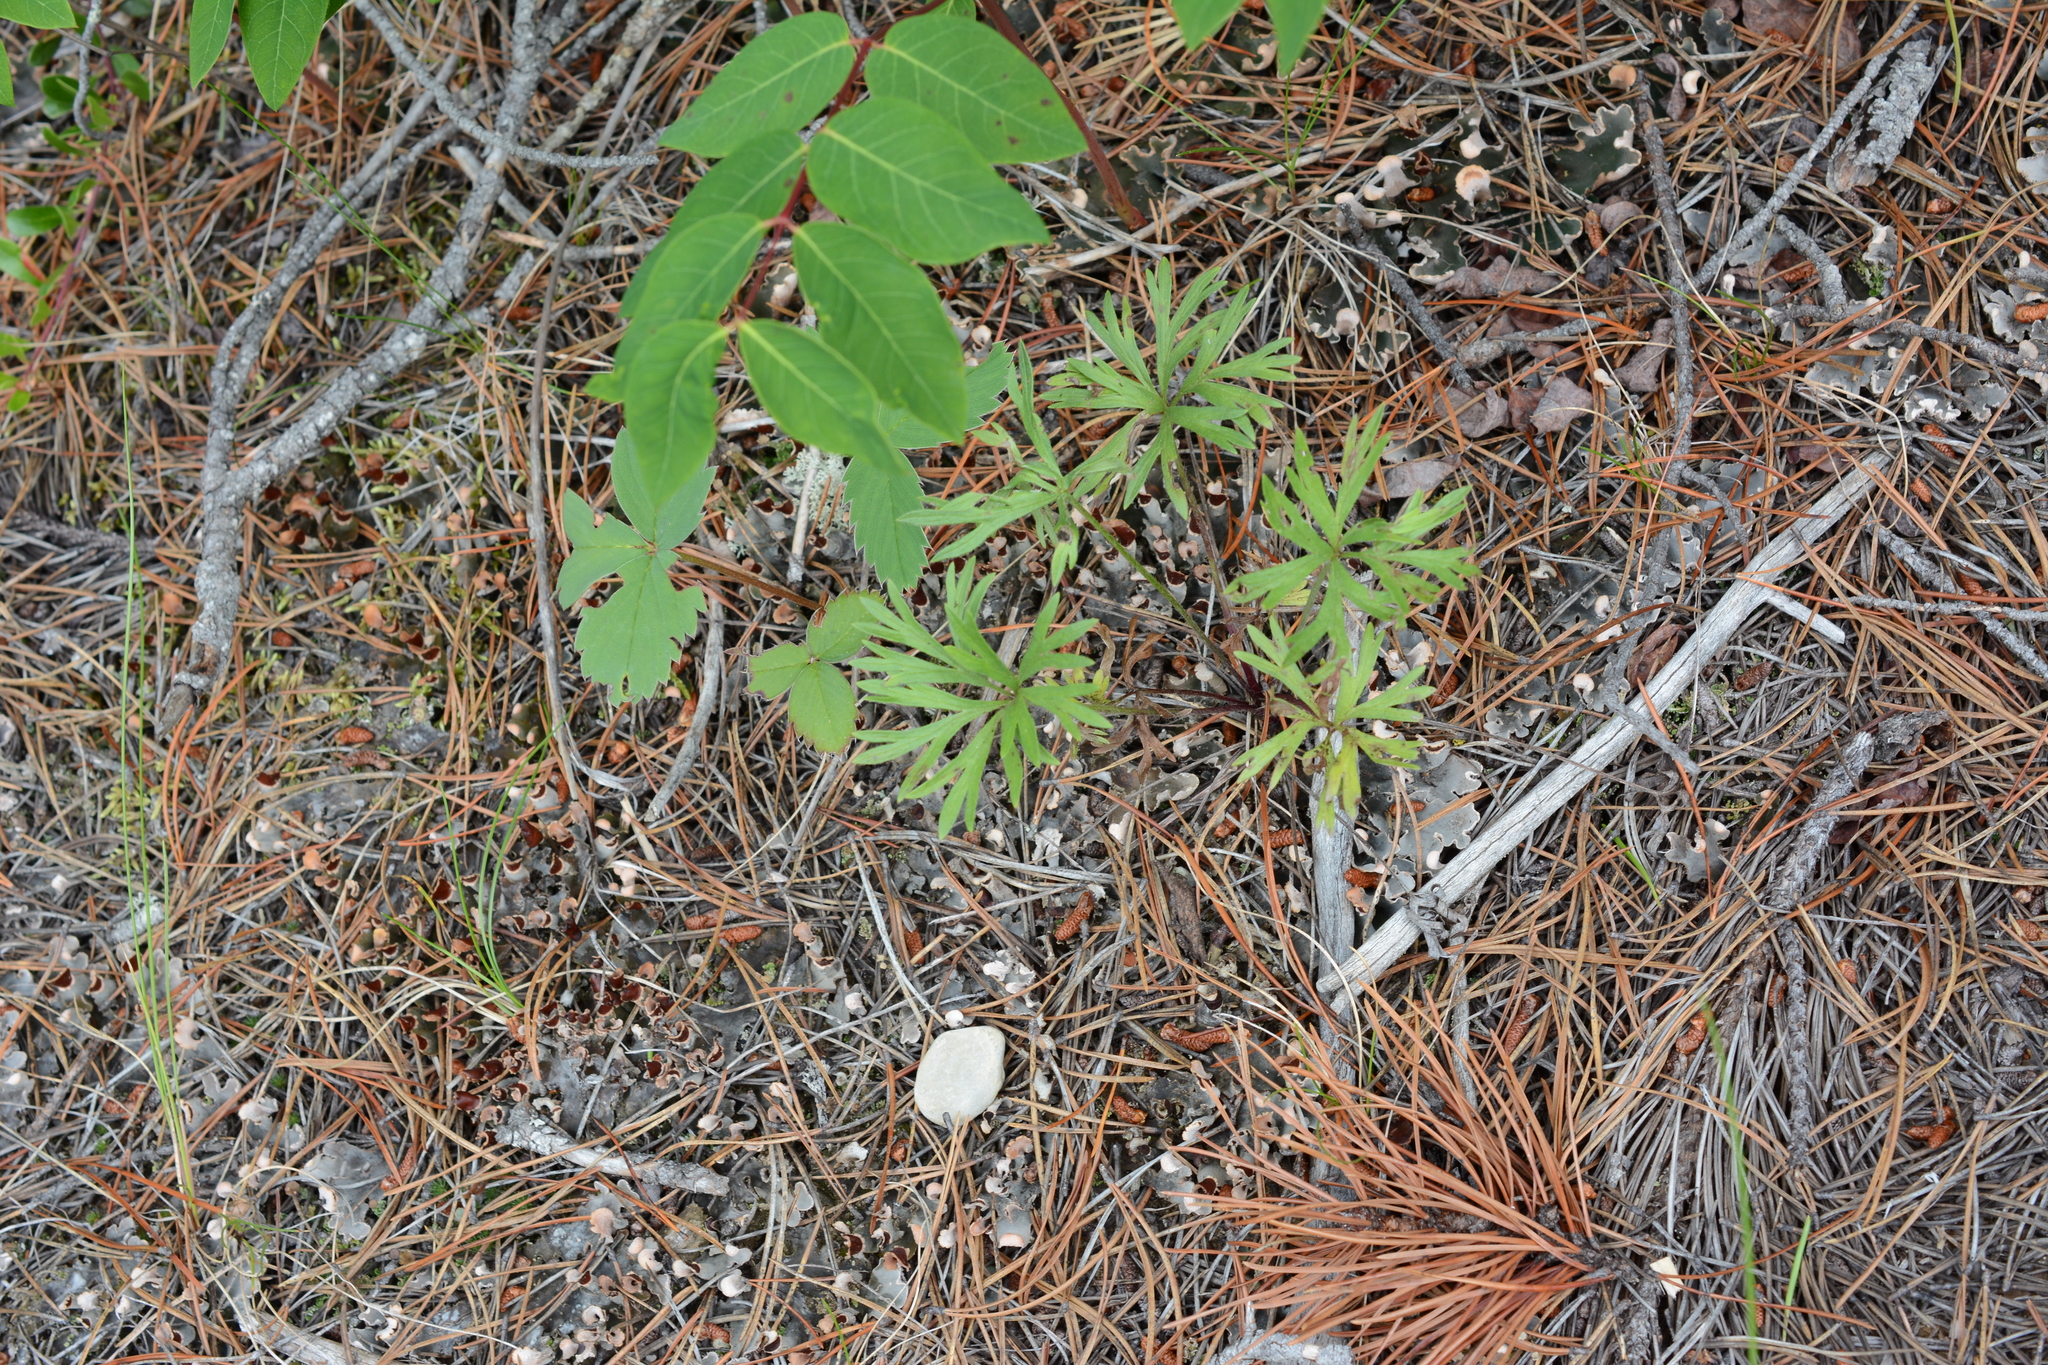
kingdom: Plantae
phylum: Tracheophyta
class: Magnoliopsida
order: Ranunculales
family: Ranunculaceae
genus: Anemone
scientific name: Anemone multifida
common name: Bird's-foot anemone
